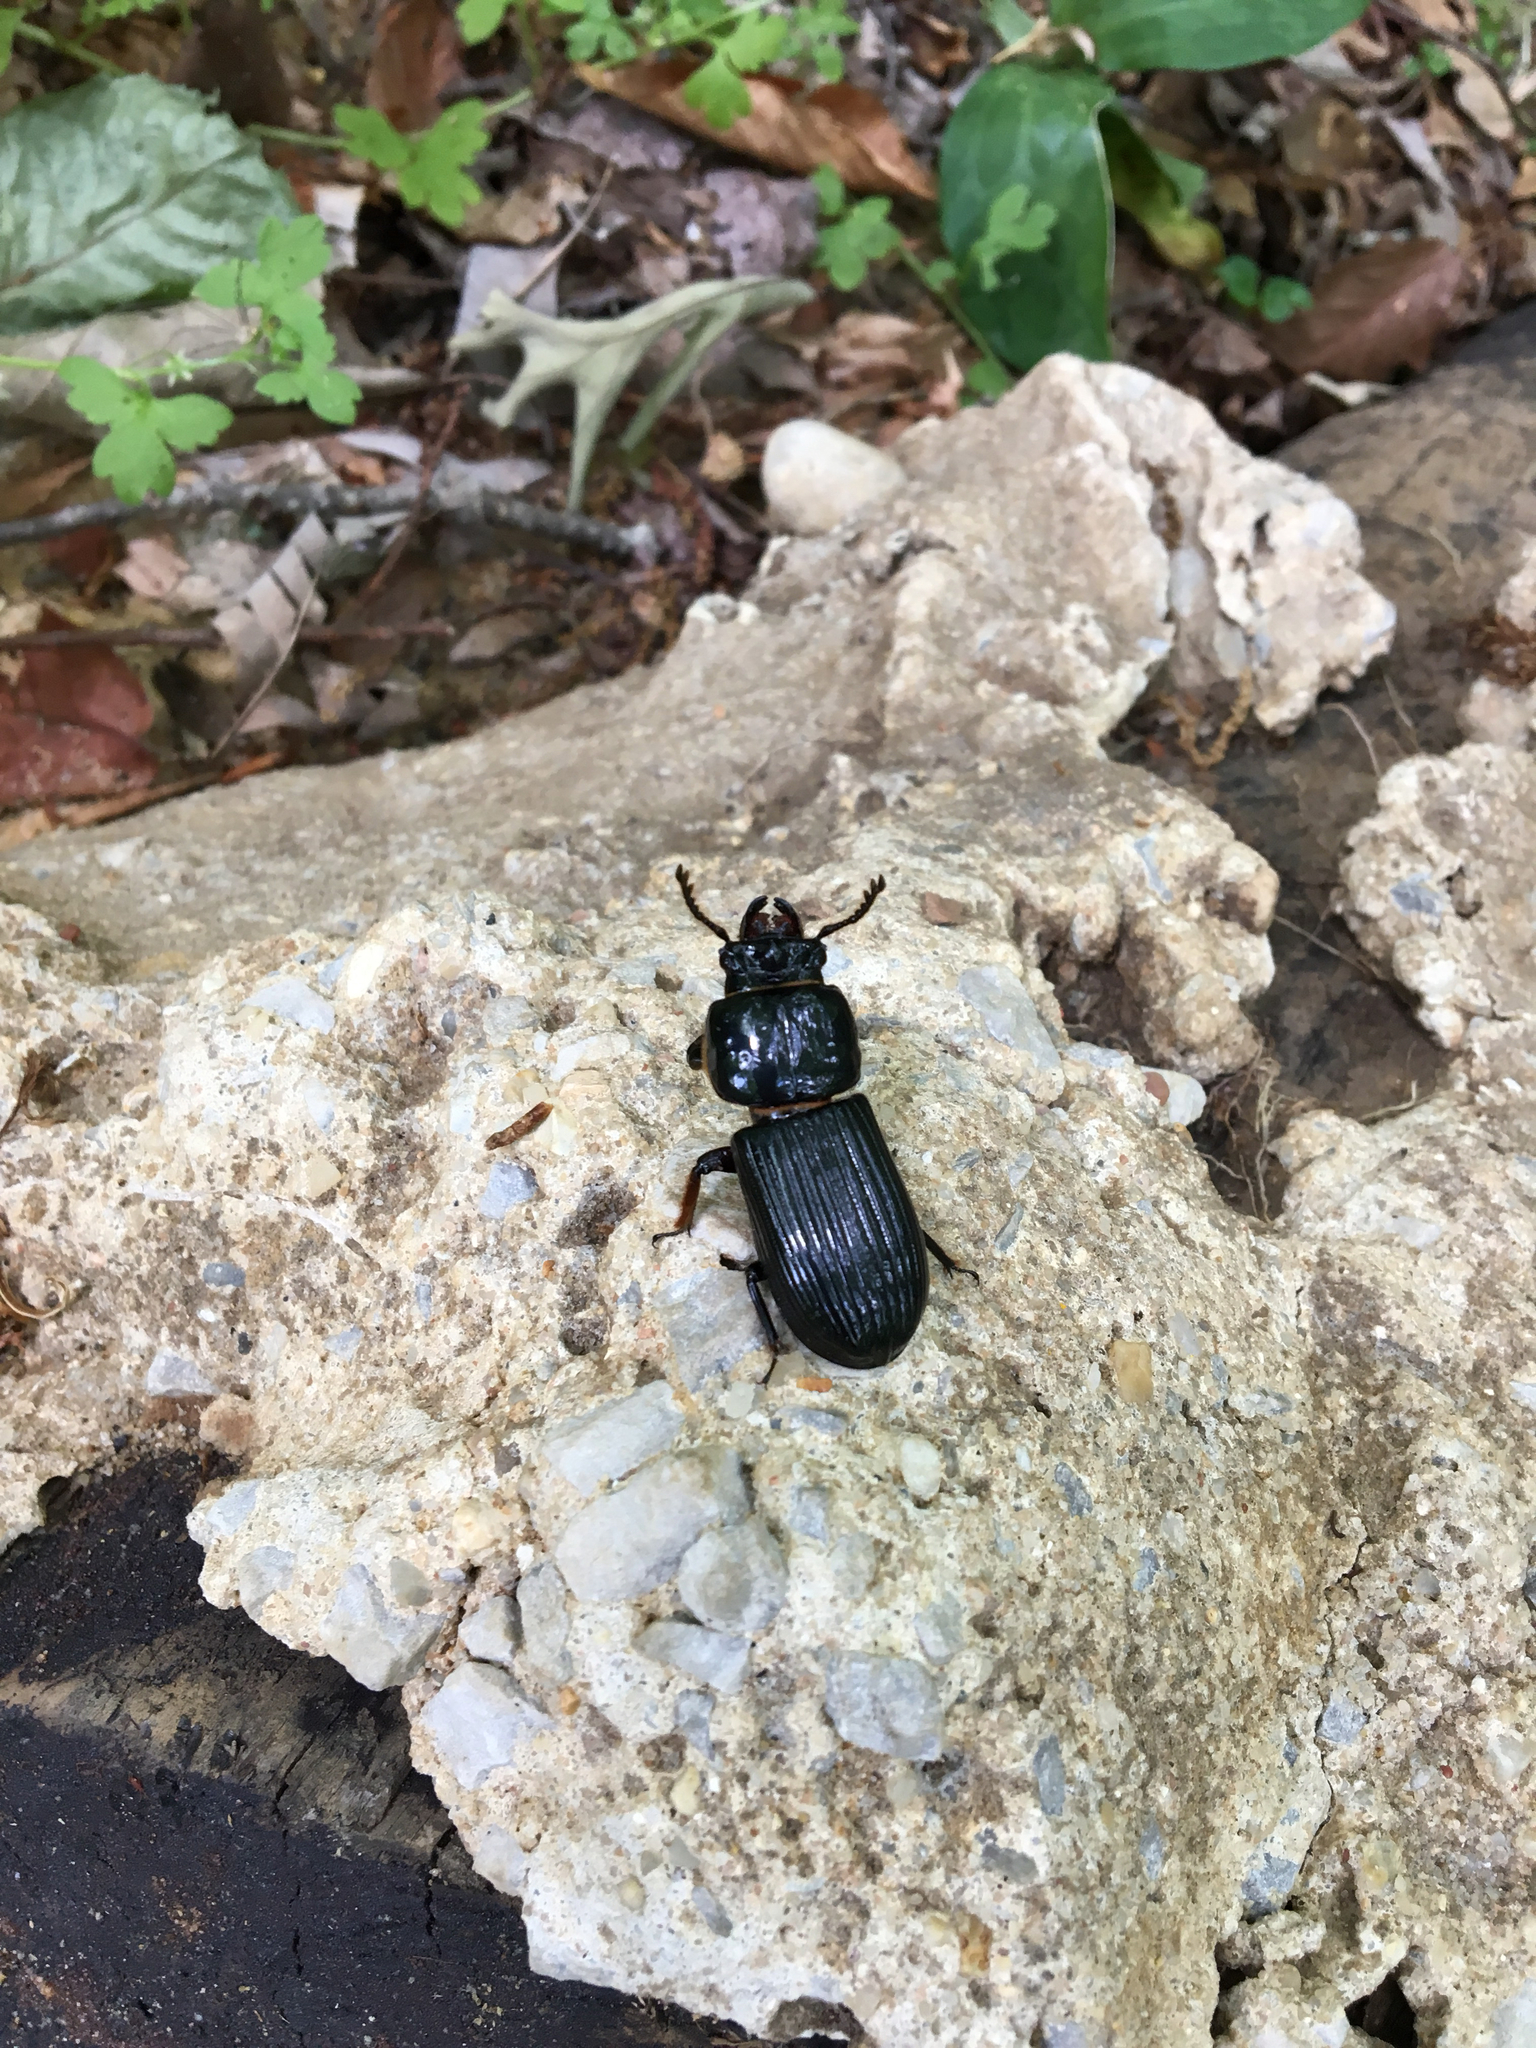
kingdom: Animalia
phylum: Arthropoda
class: Insecta
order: Coleoptera
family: Passalidae
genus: Odontotaenius
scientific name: Odontotaenius disjunctus
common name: Patent leather beetle
